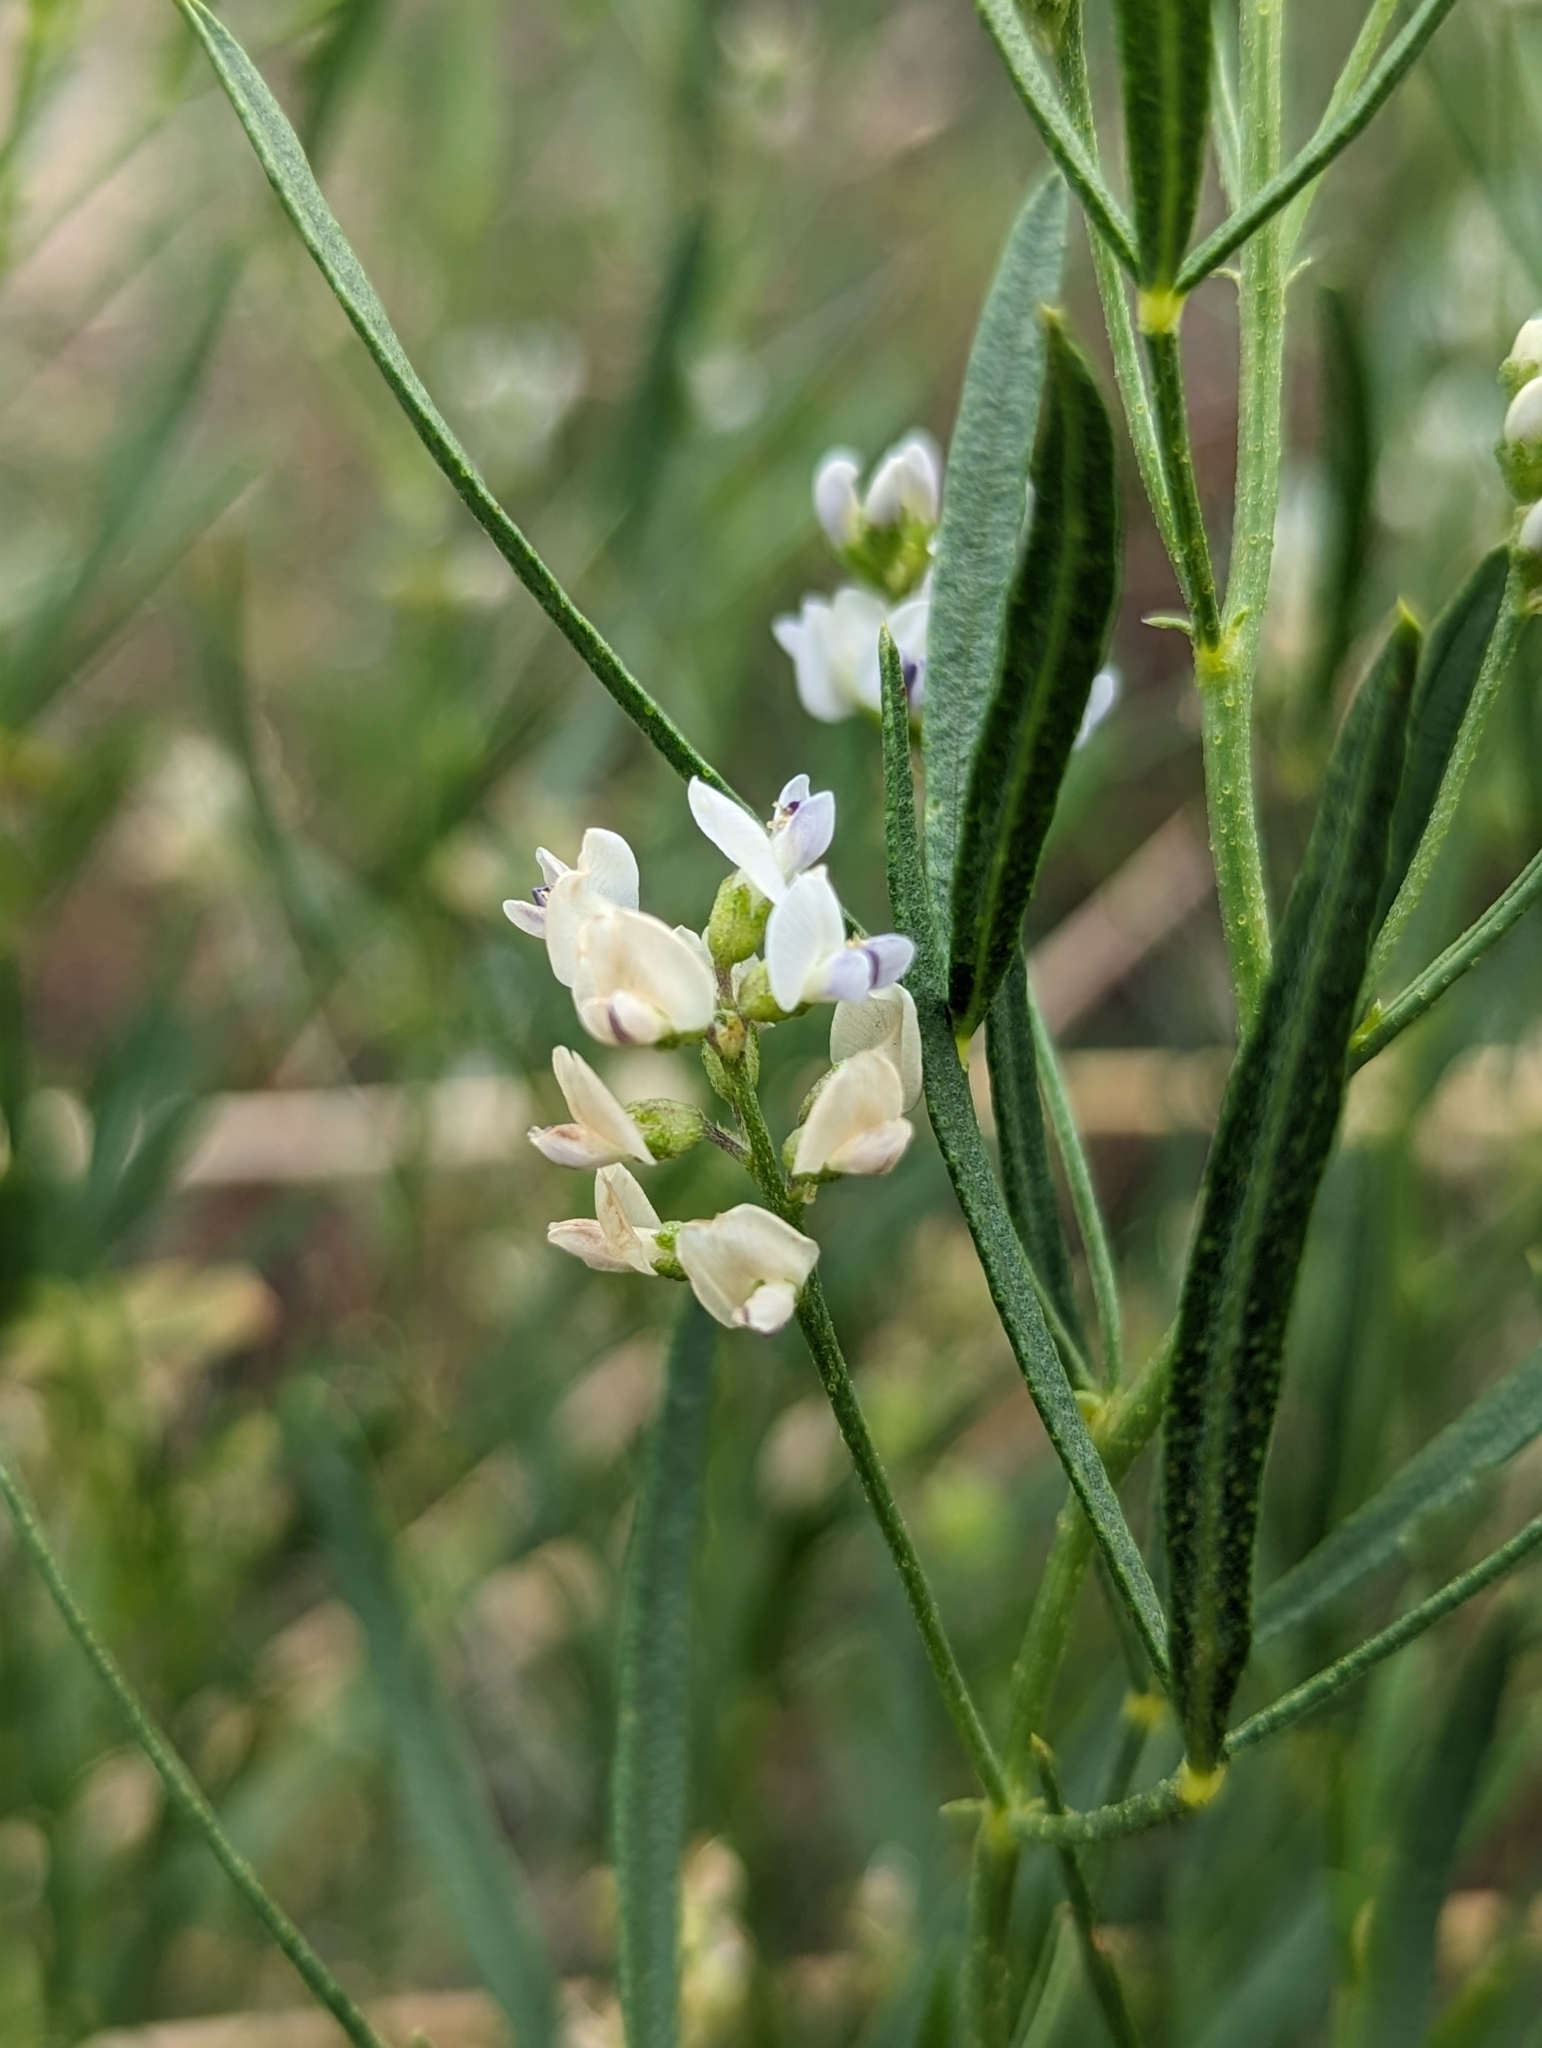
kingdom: Plantae
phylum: Tracheophyta
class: Magnoliopsida
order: Fabales
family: Fabaceae
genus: Ladeania
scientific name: Ladeania lanceolata
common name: Dune scurf-pea
